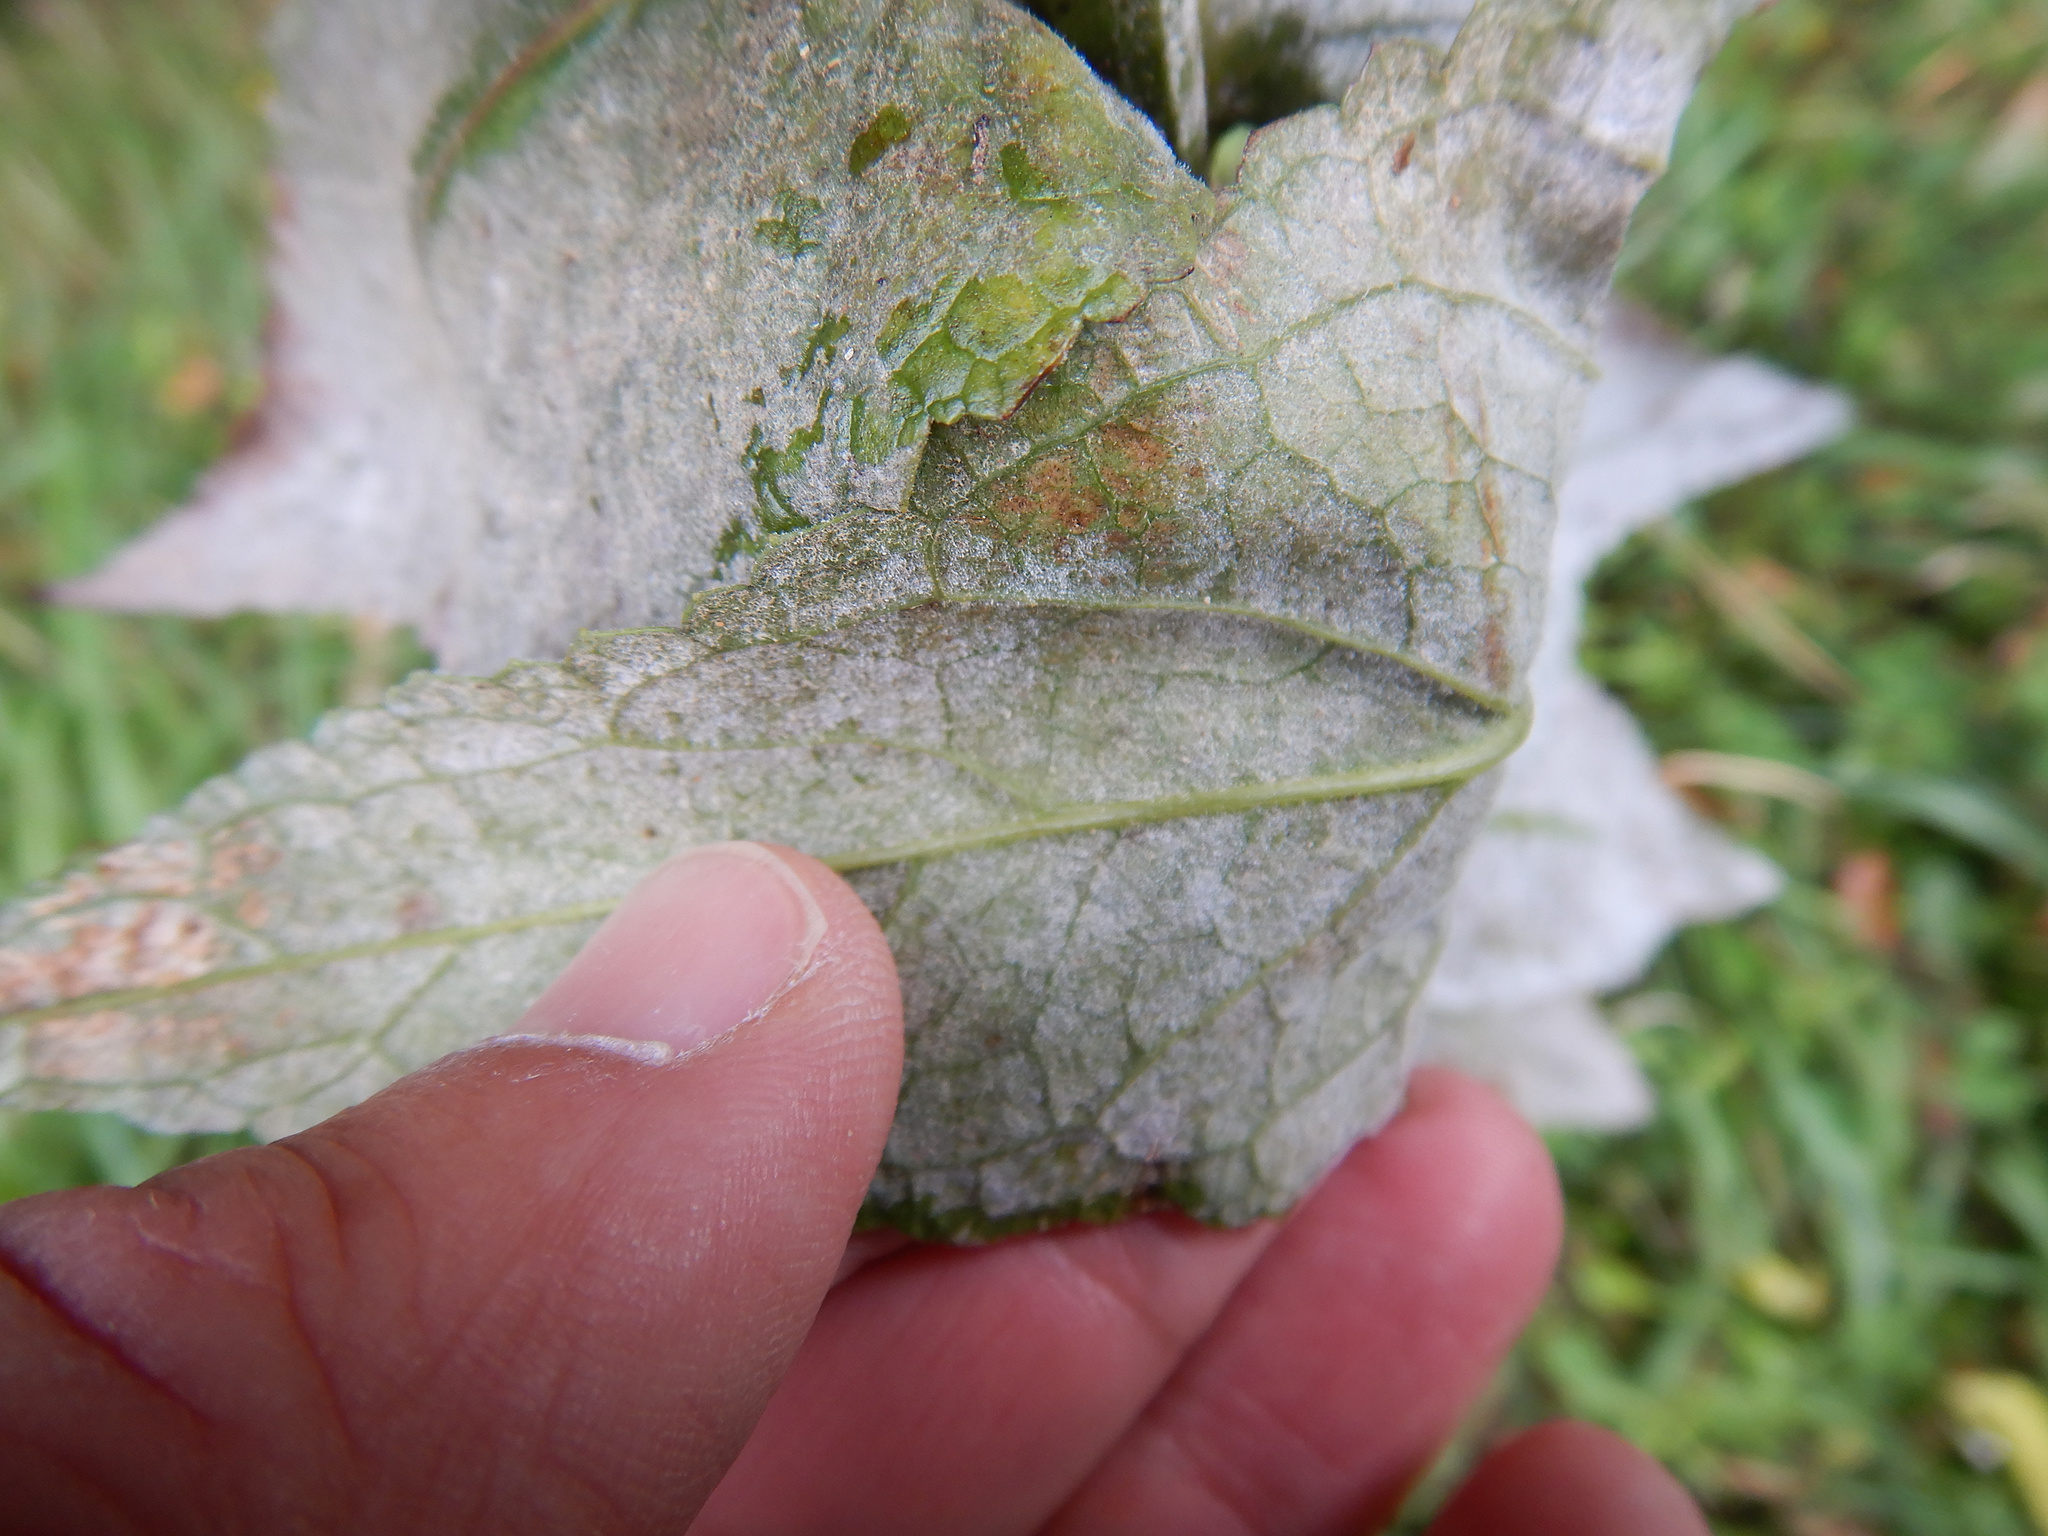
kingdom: Fungi
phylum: Ascomycota
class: Leotiomycetes
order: Helotiales
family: Erysiphaceae
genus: Golovinomyces
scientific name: Golovinomyces verbasci
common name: Powdery mildew
